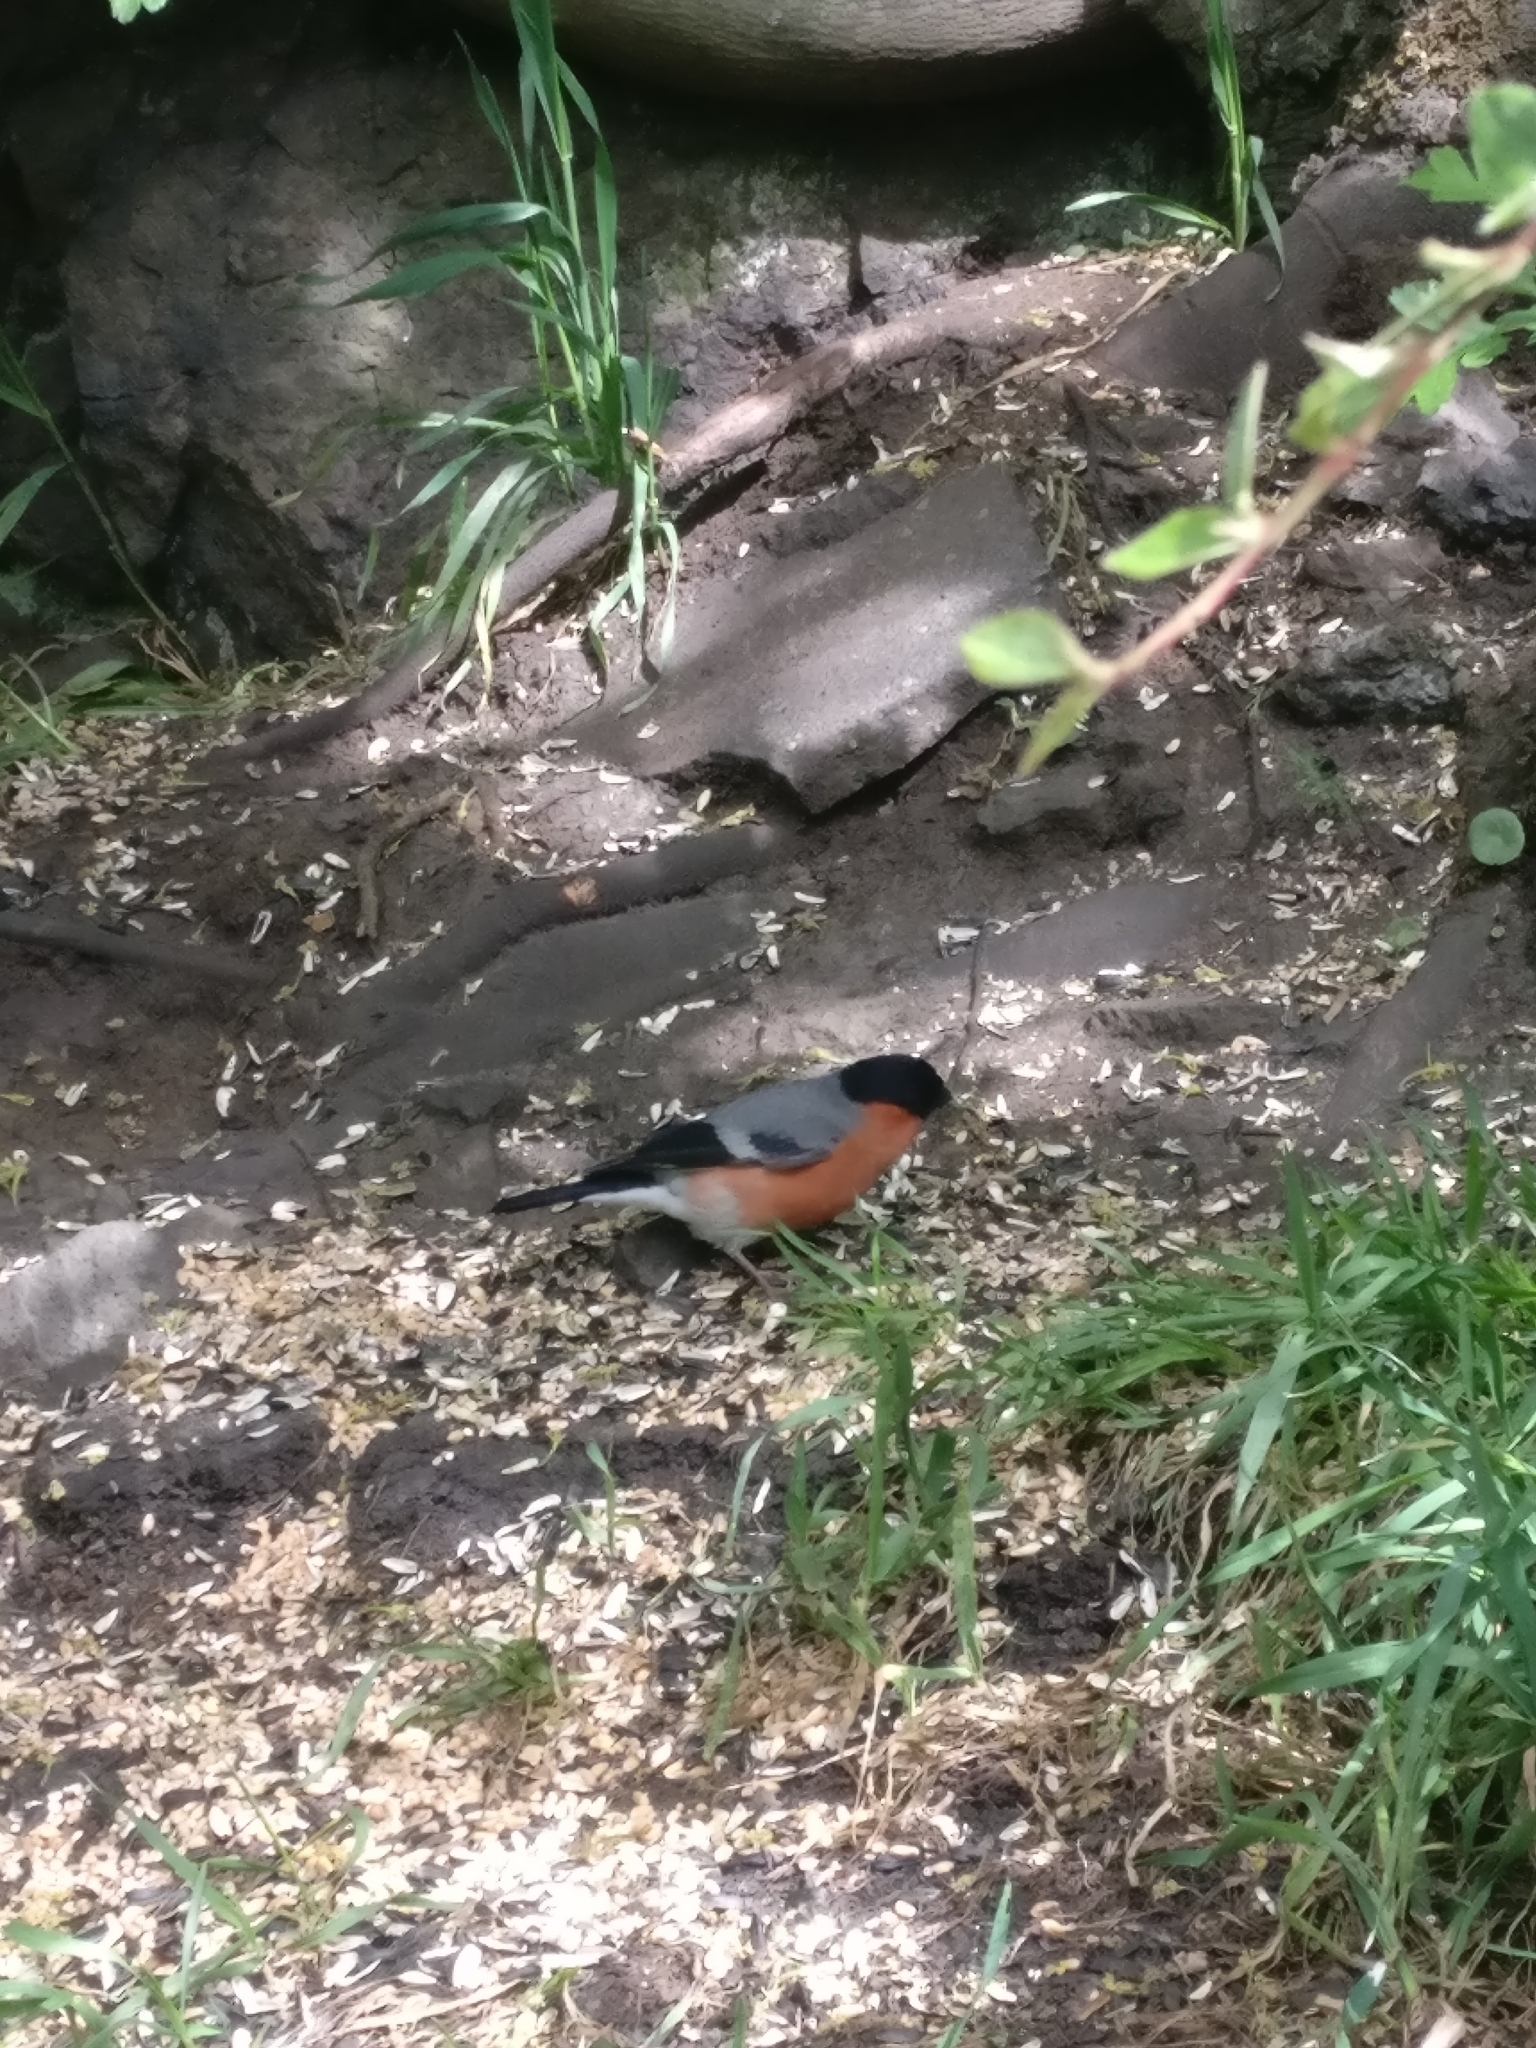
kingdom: Animalia
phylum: Chordata
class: Aves
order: Passeriformes
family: Fringillidae
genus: Pyrrhula
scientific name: Pyrrhula pyrrhula
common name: Eurasian bullfinch
